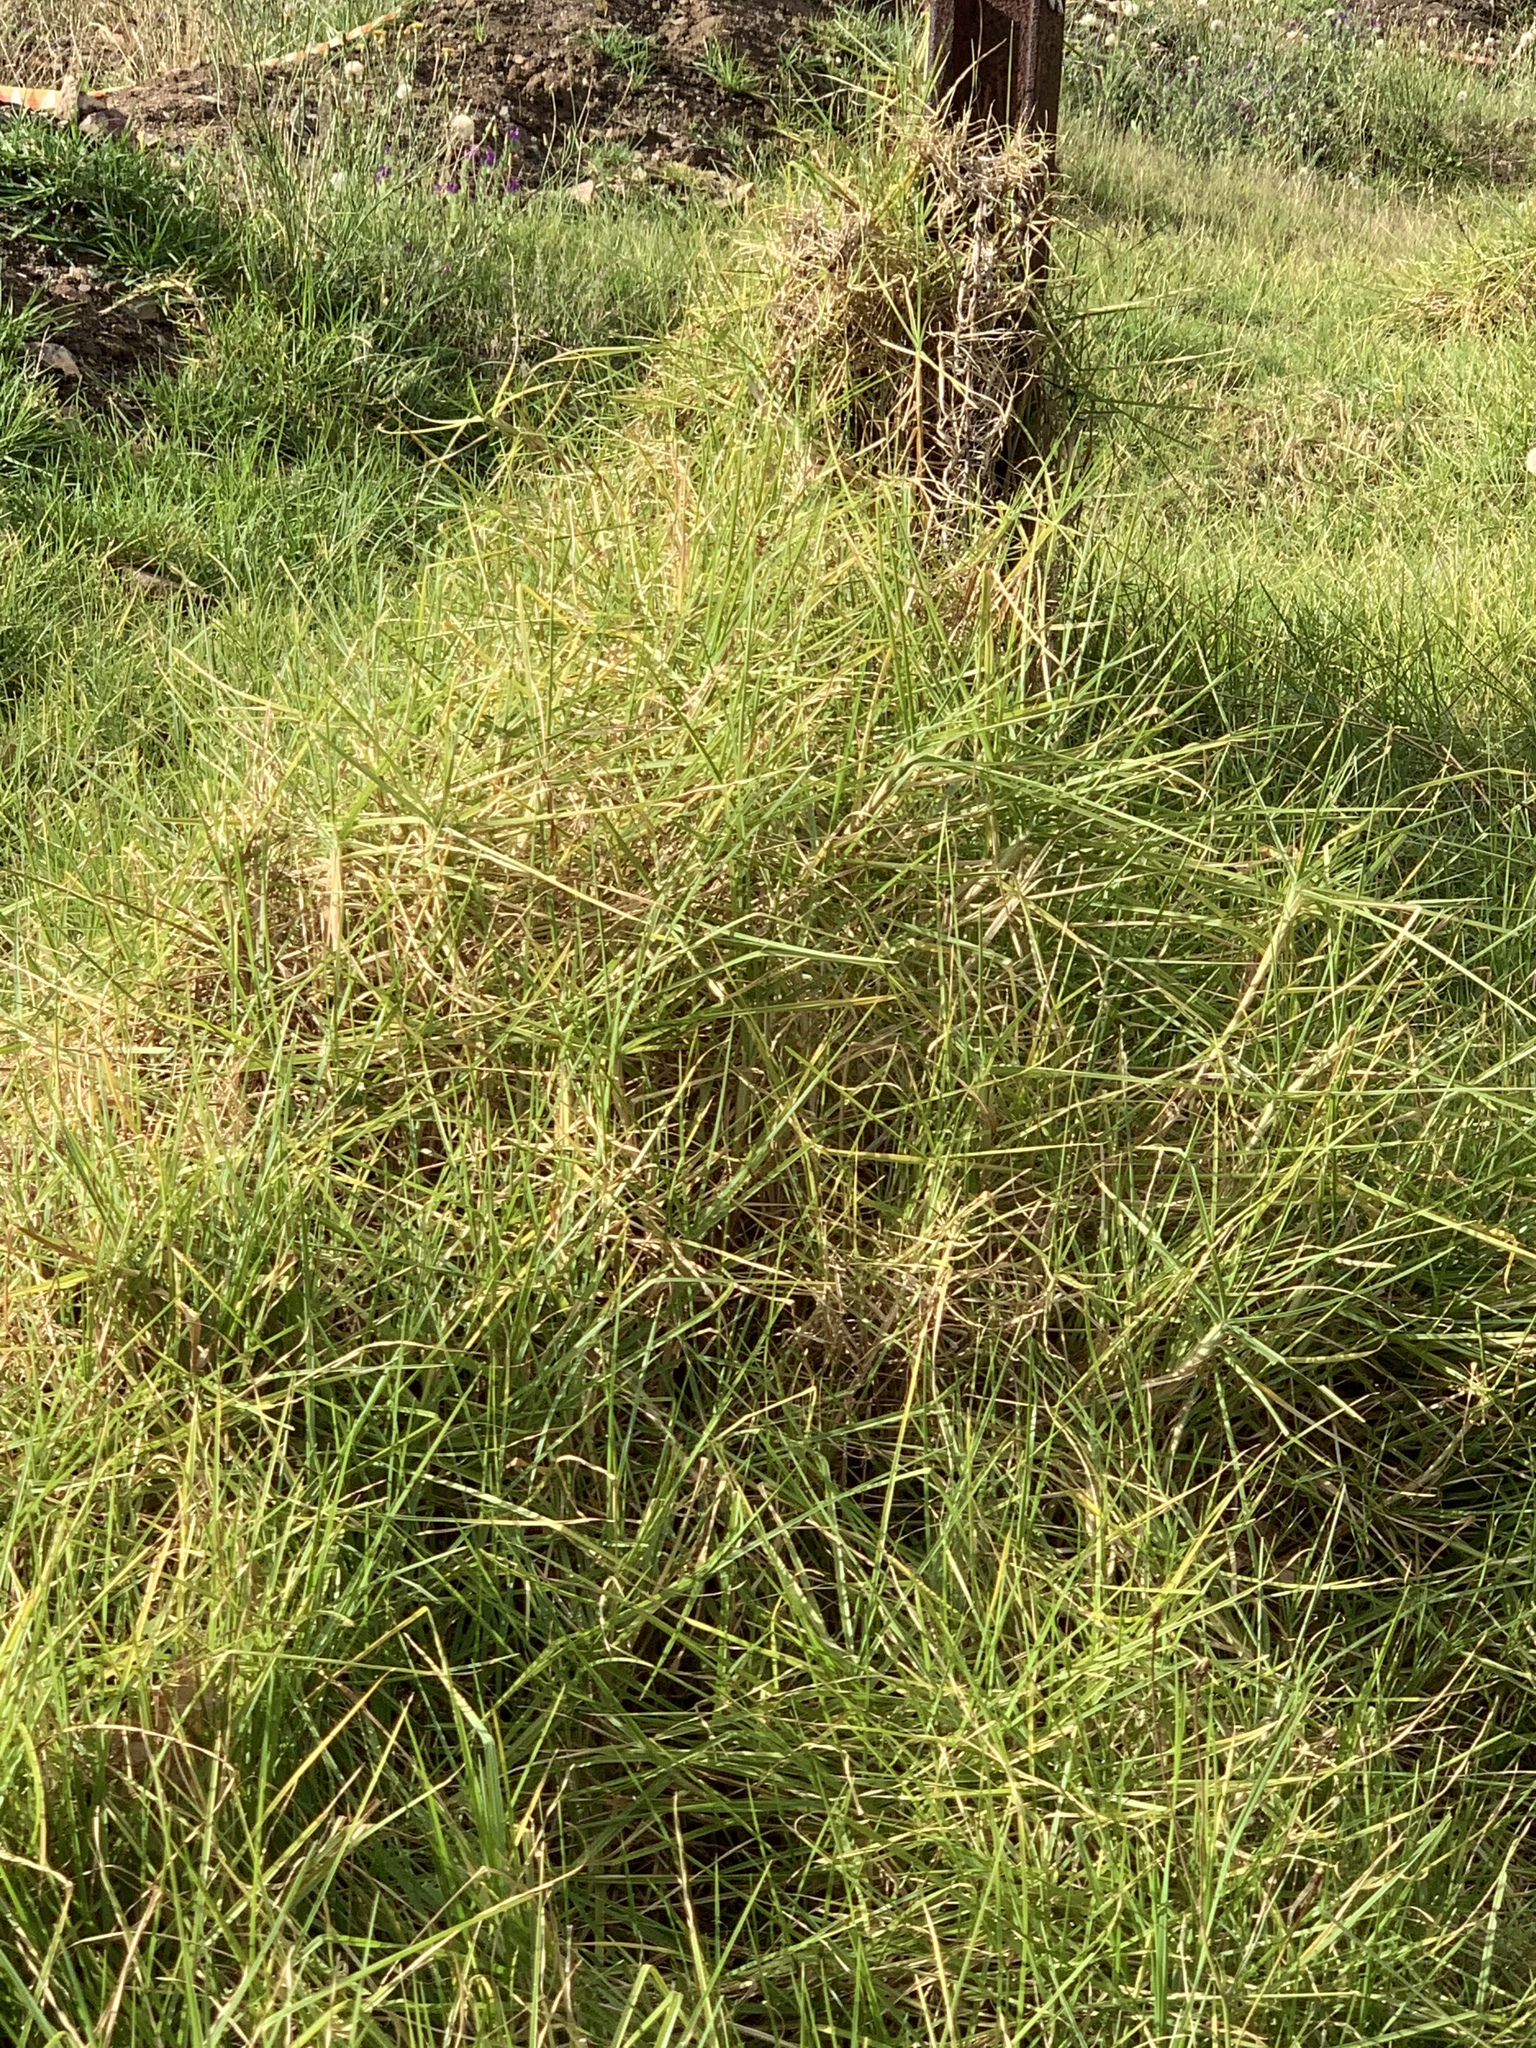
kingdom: Plantae
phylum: Tracheophyta
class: Liliopsida
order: Poales
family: Poaceae
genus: Cenchrus
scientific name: Cenchrus clandestinus
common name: Kikuyugrass
